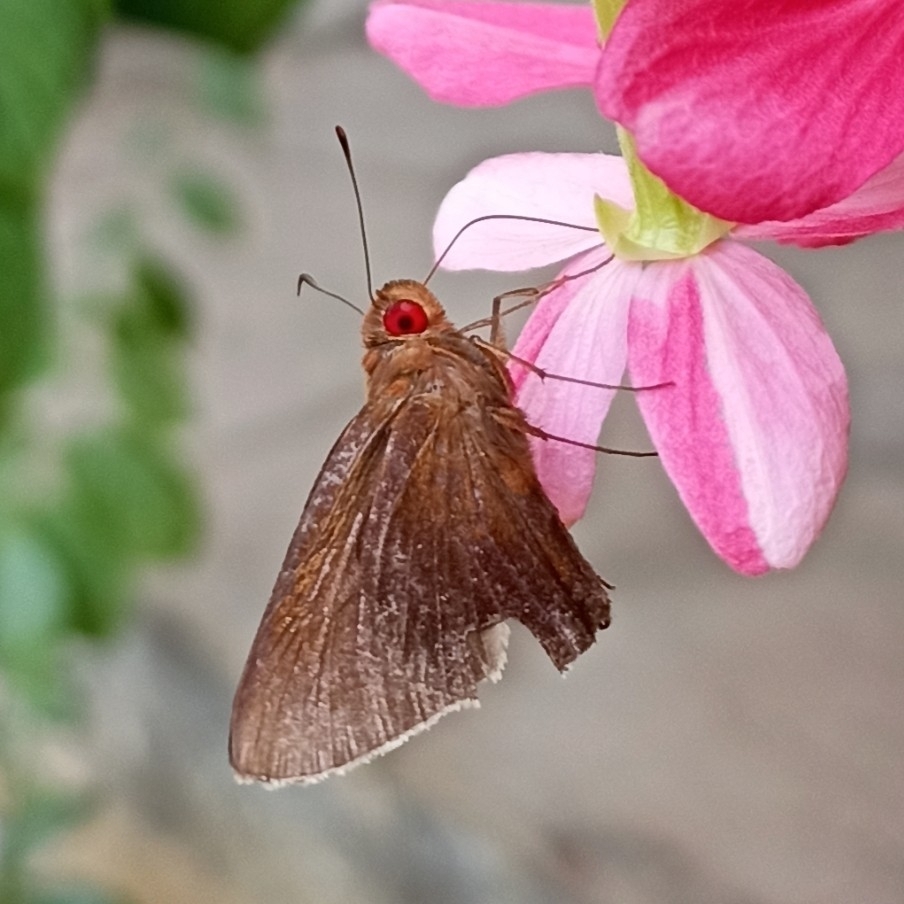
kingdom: Animalia
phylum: Arthropoda
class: Insecta
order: Lepidoptera
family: Hesperiidae
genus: Matapa
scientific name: Matapa aria
